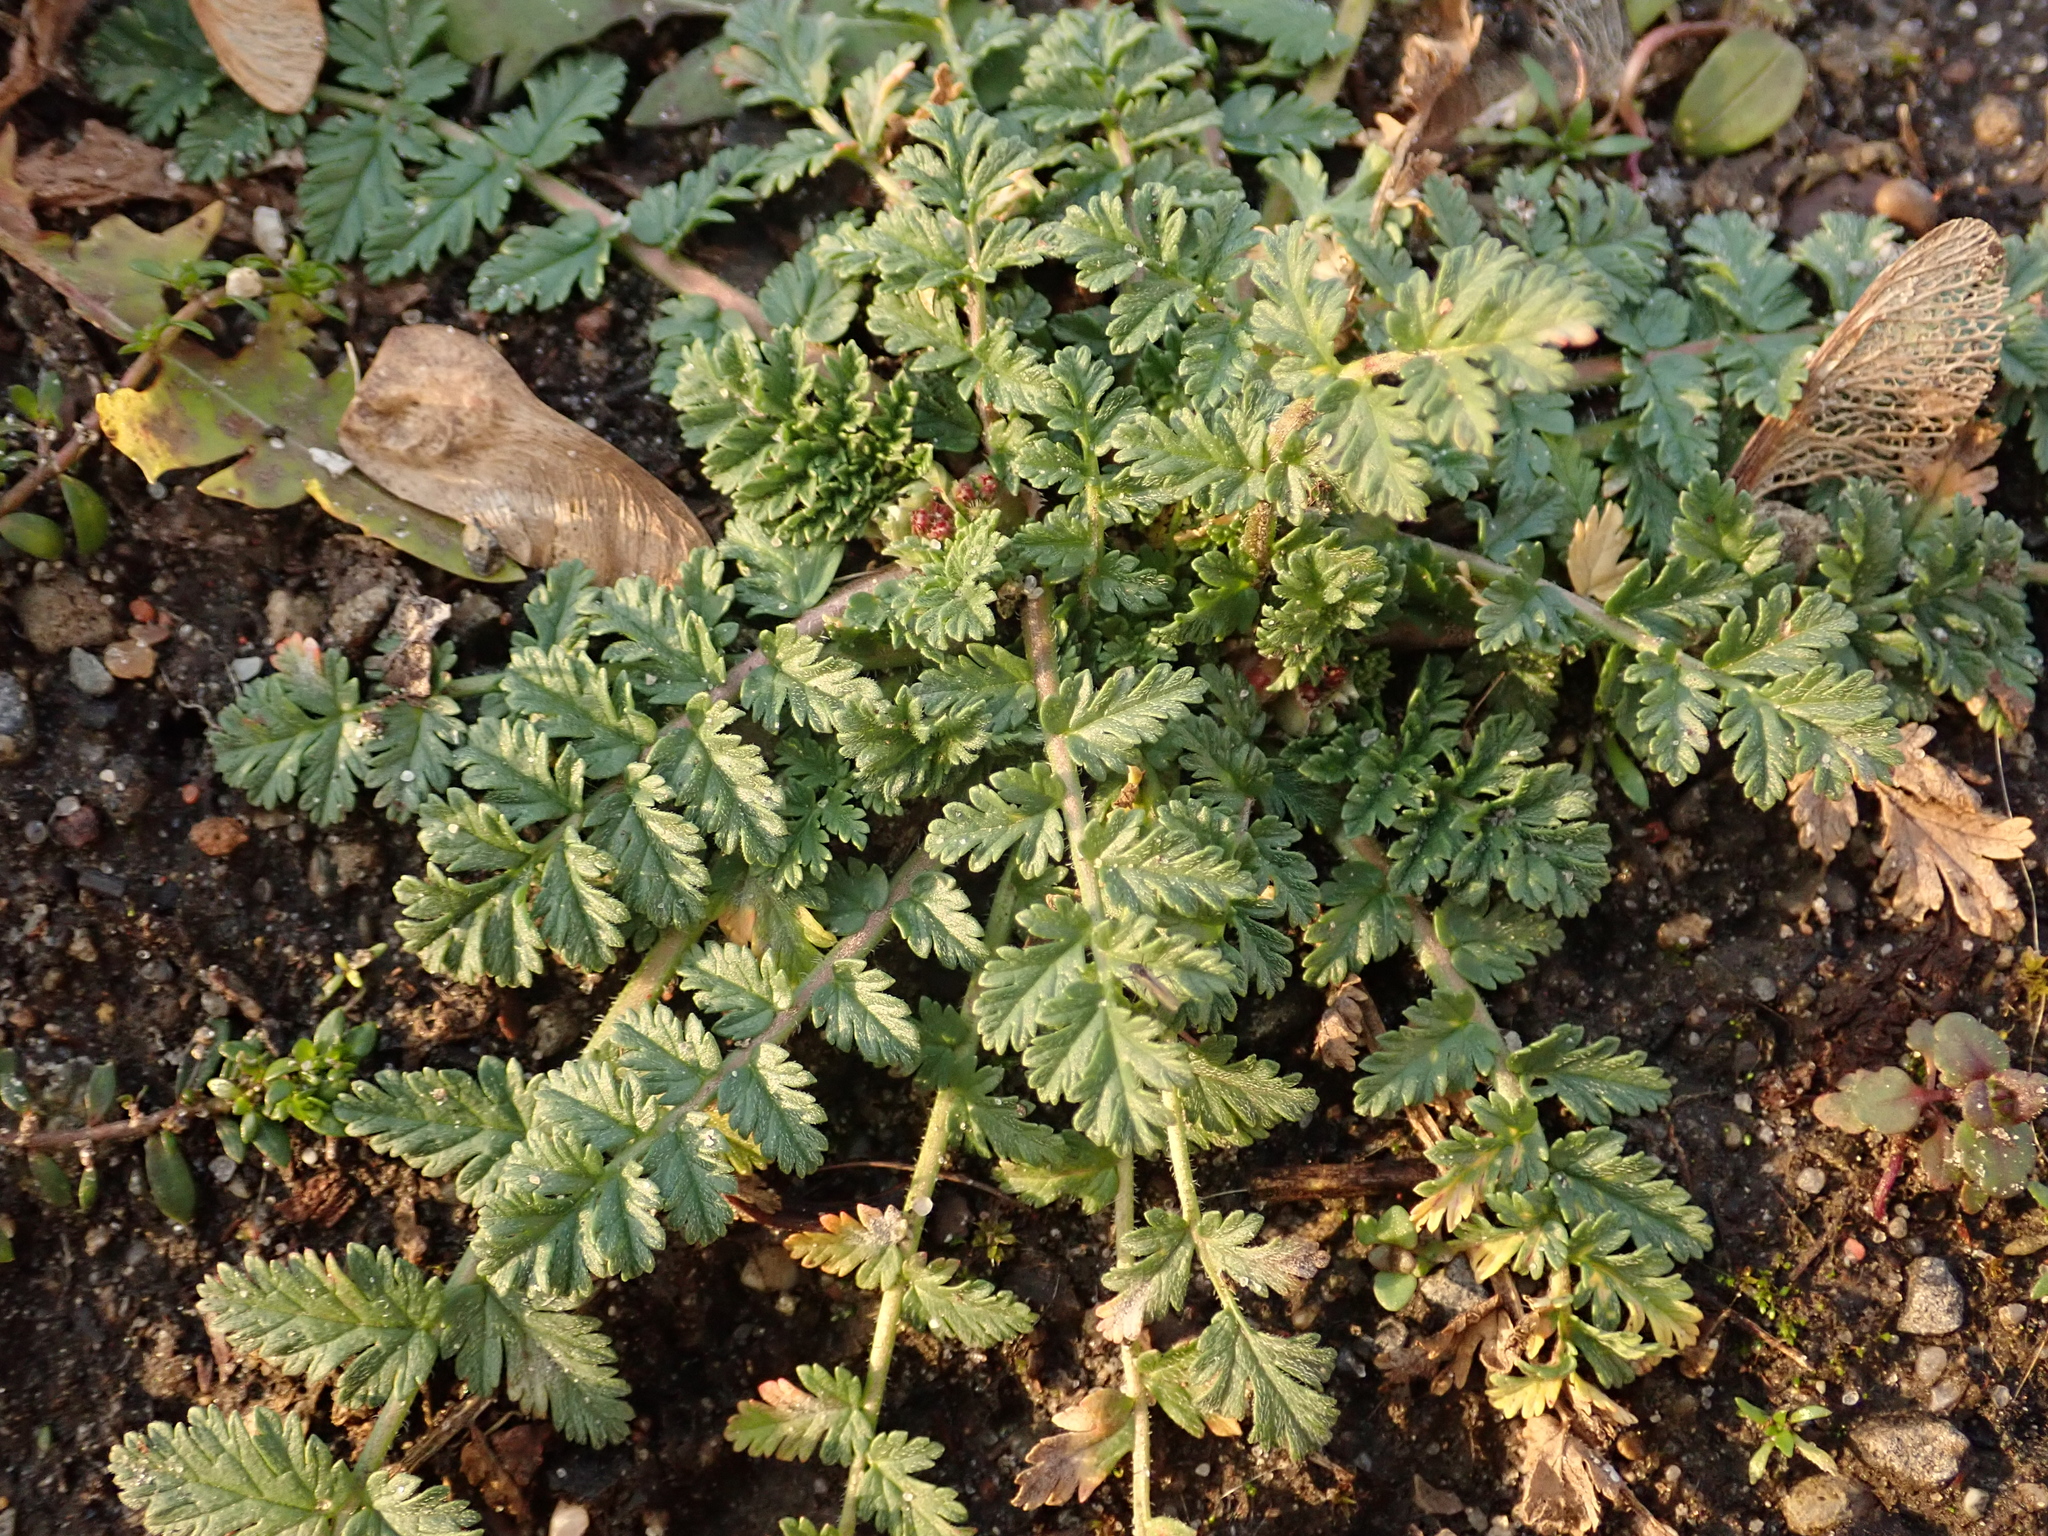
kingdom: Plantae
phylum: Tracheophyta
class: Magnoliopsida
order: Geraniales
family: Geraniaceae
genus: Erodium
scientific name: Erodium cicutarium
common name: Common stork's-bill
